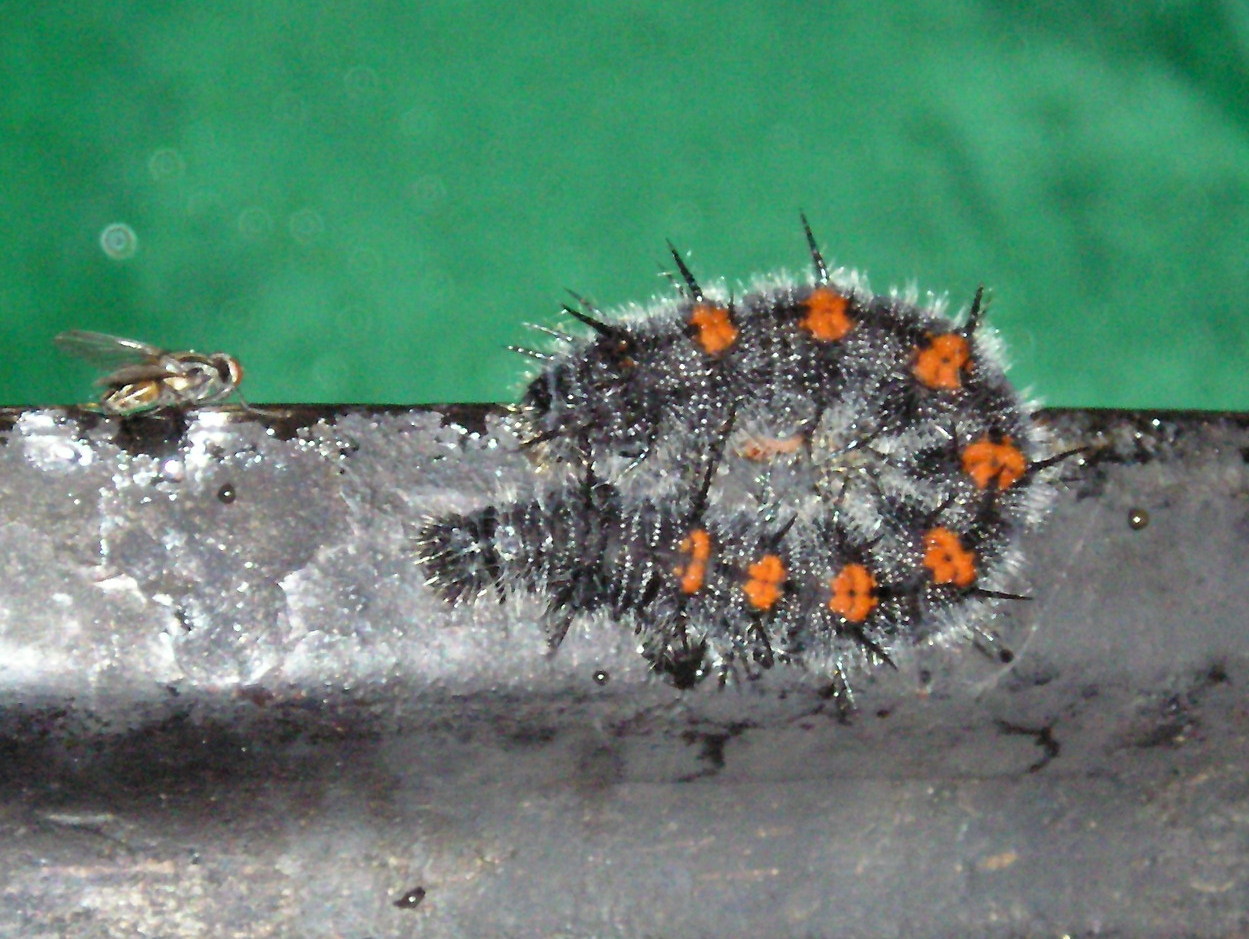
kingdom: Animalia
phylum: Arthropoda
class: Insecta
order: Lepidoptera
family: Nymphalidae
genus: Nymphalis
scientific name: Nymphalis antiopa
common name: Camberwell beauty
